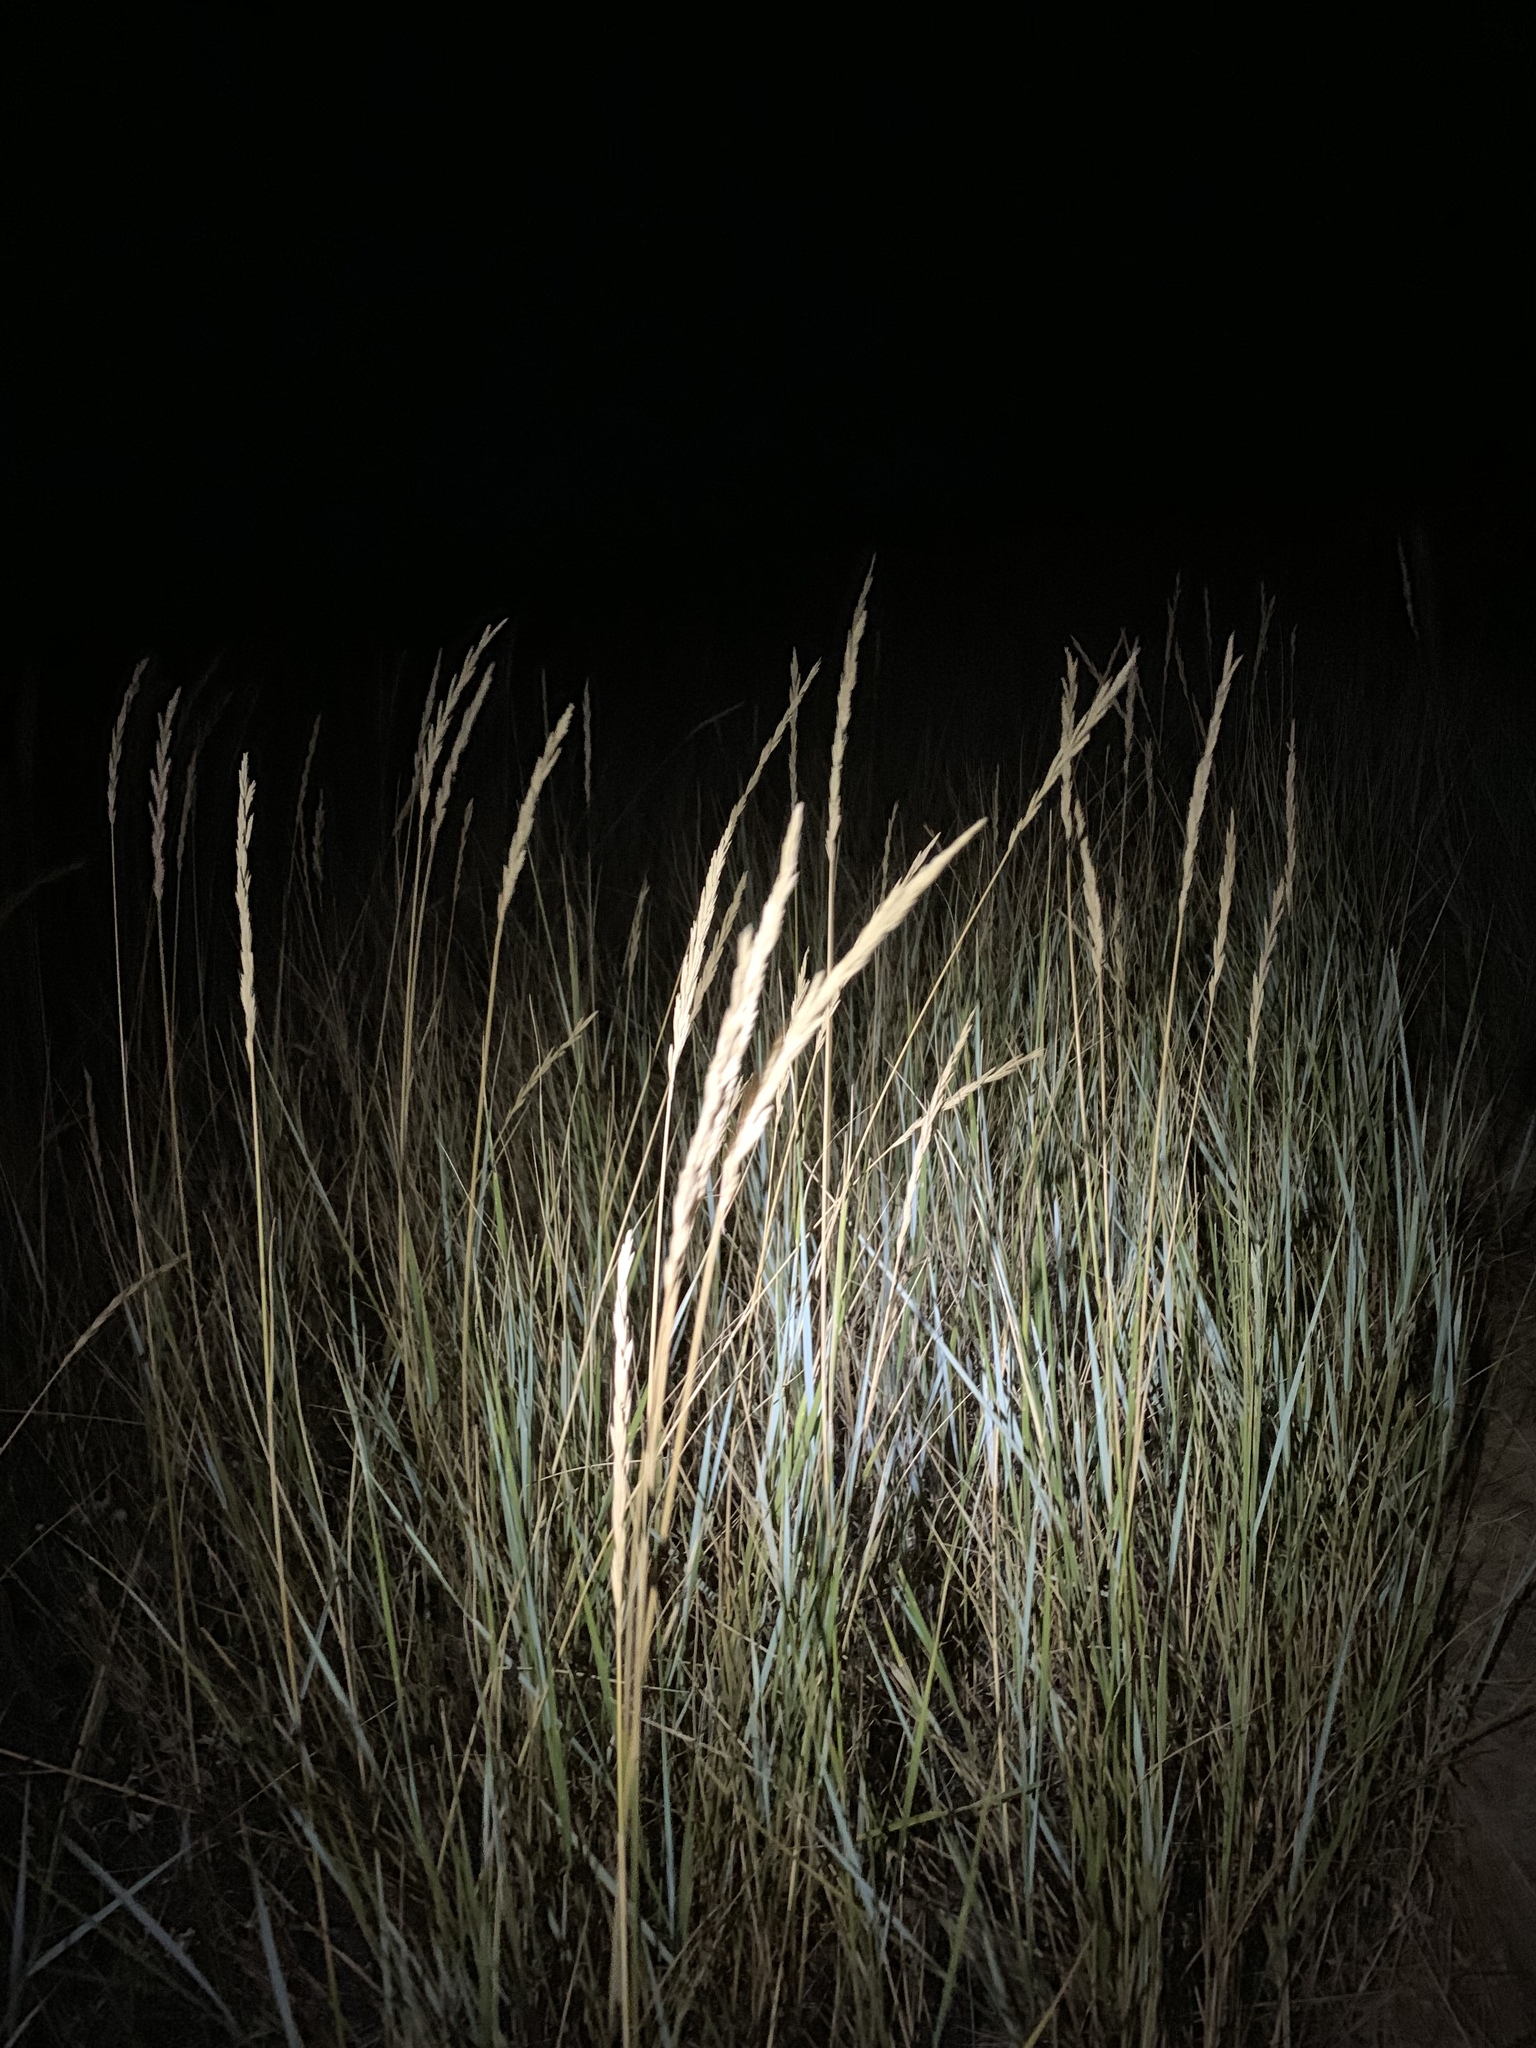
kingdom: Plantae
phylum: Tracheophyta
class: Liliopsida
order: Poales
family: Poaceae
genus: Elymus
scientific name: Elymus smithii
